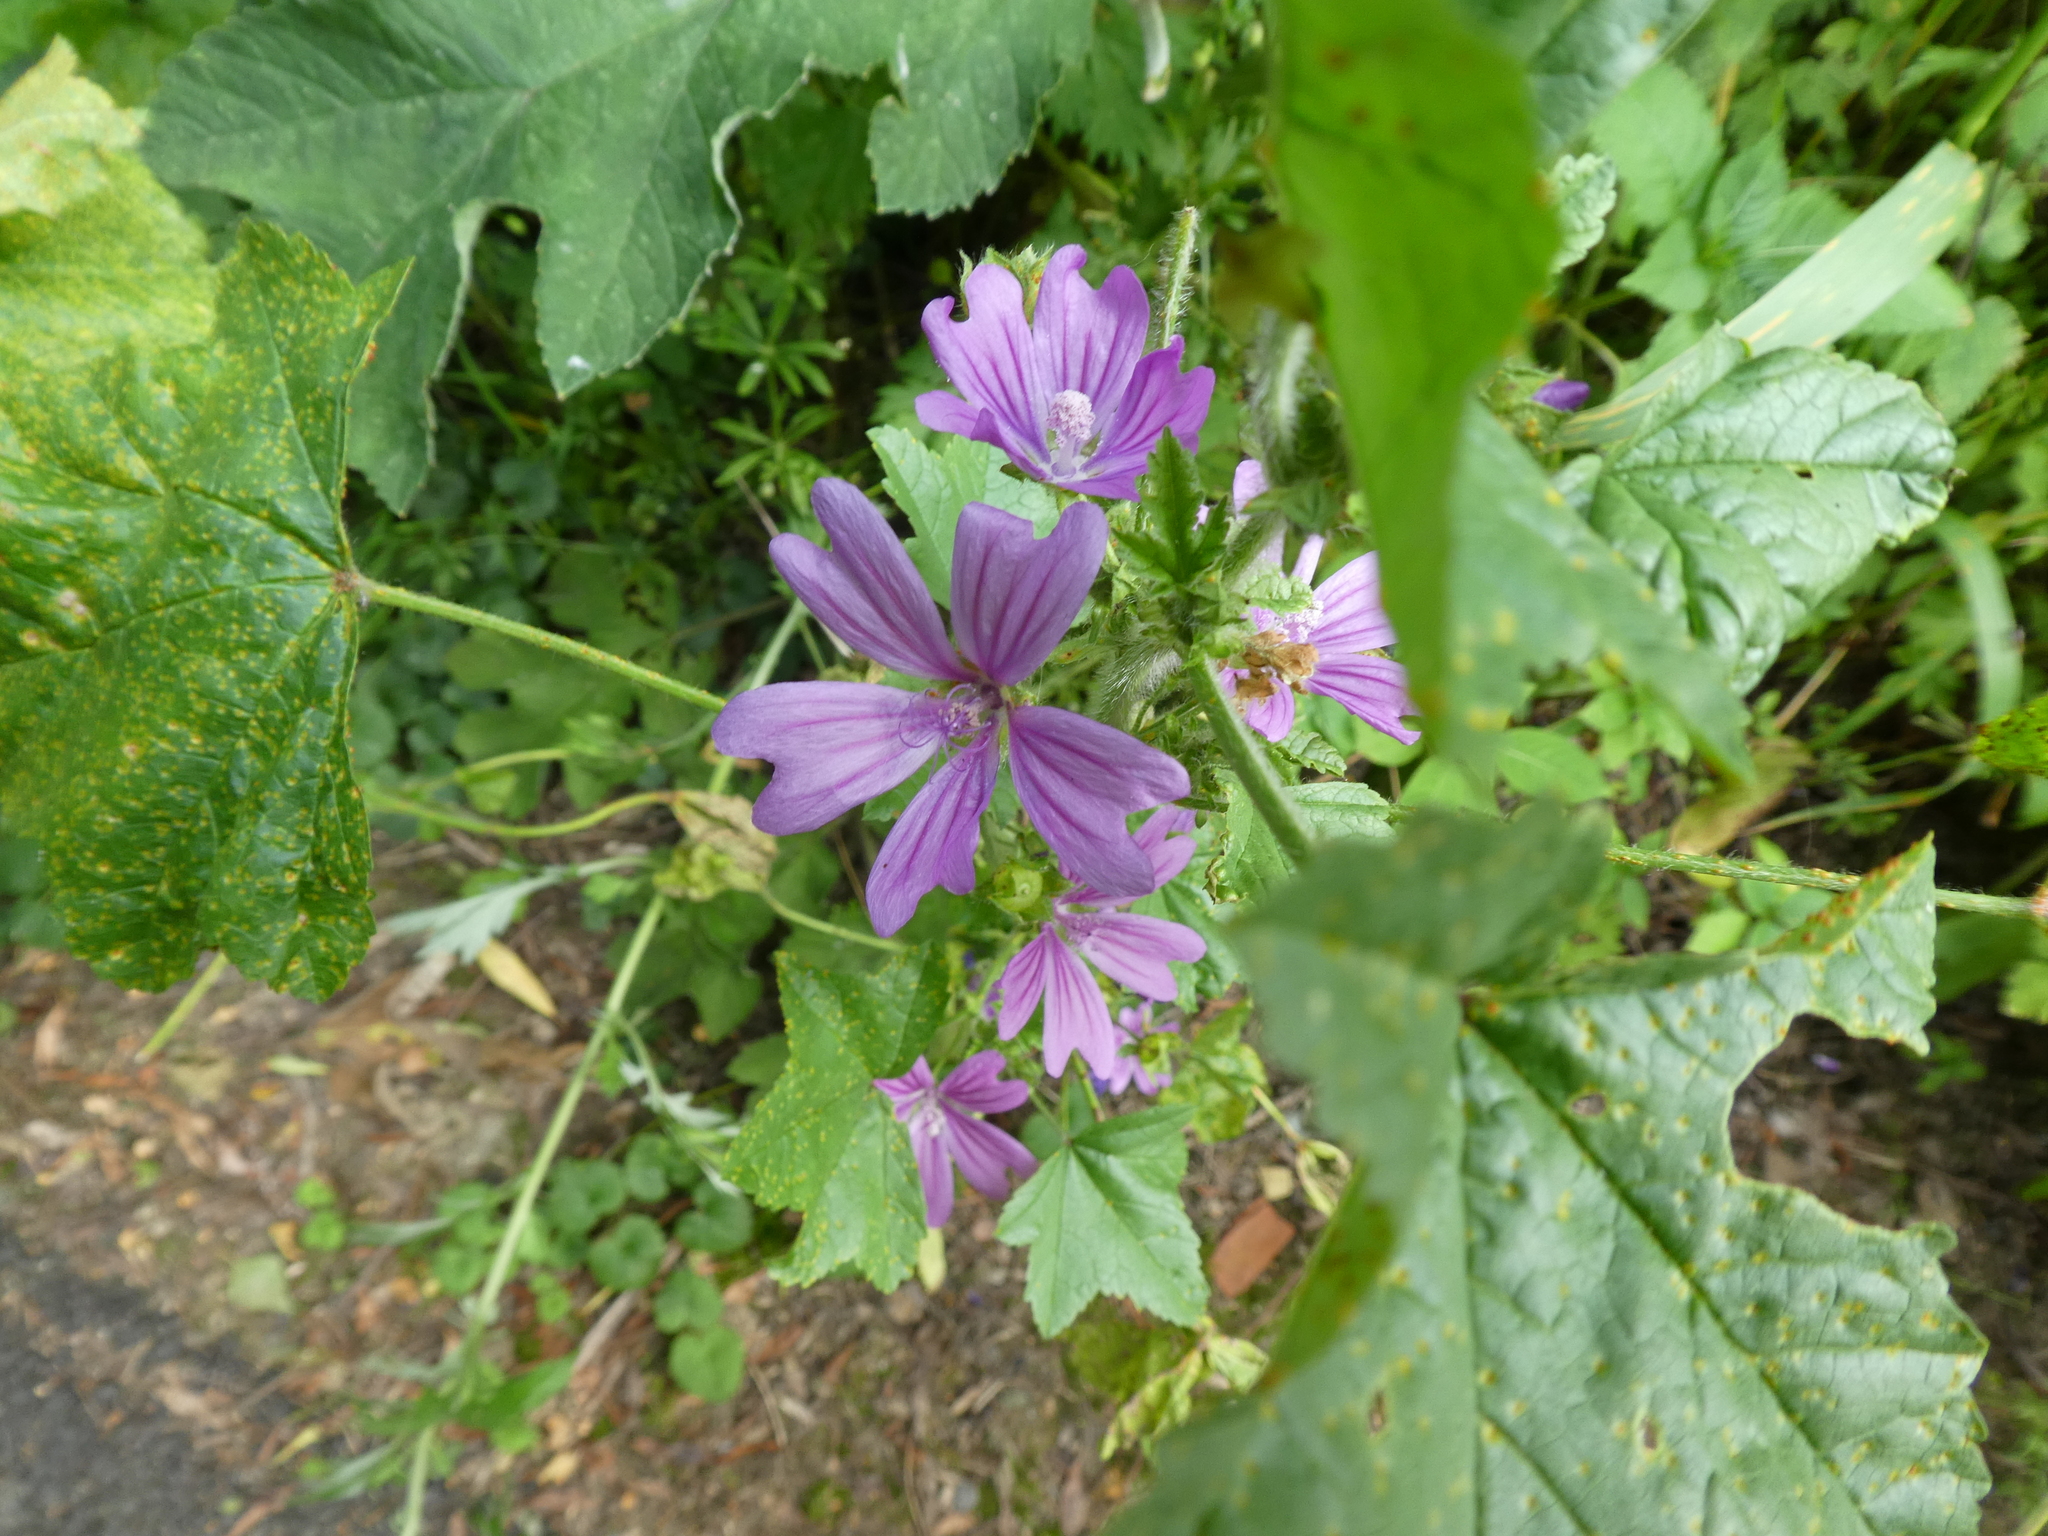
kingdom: Plantae
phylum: Tracheophyta
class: Magnoliopsida
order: Malvales
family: Malvaceae
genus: Malva
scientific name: Malva sylvestris
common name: Common mallow
